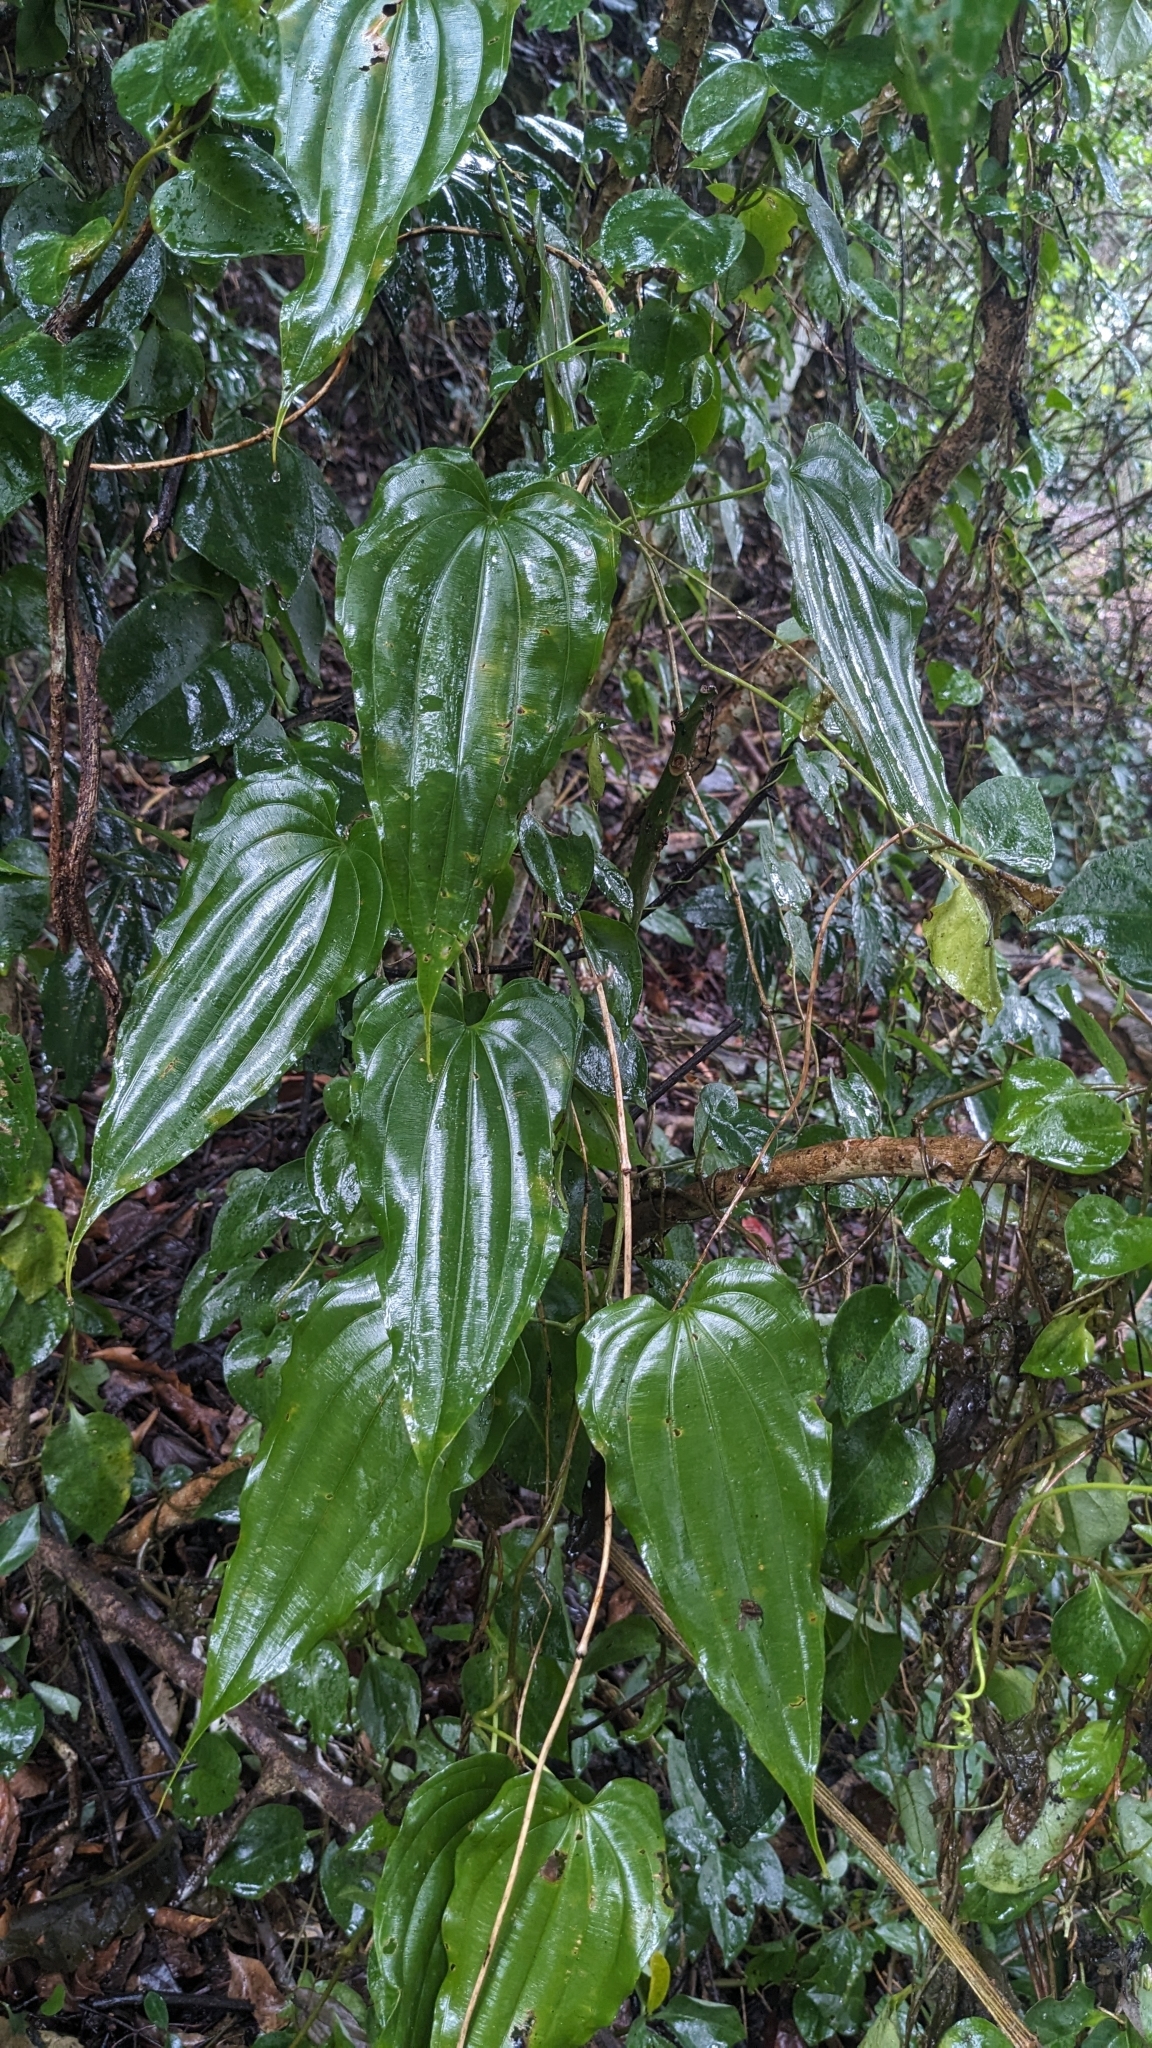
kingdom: Plantae
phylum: Tracheophyta
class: Liliopsida
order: Pandanales
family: Stemonaceae
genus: Stemona
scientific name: Stemona tuberosa
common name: Stemona
